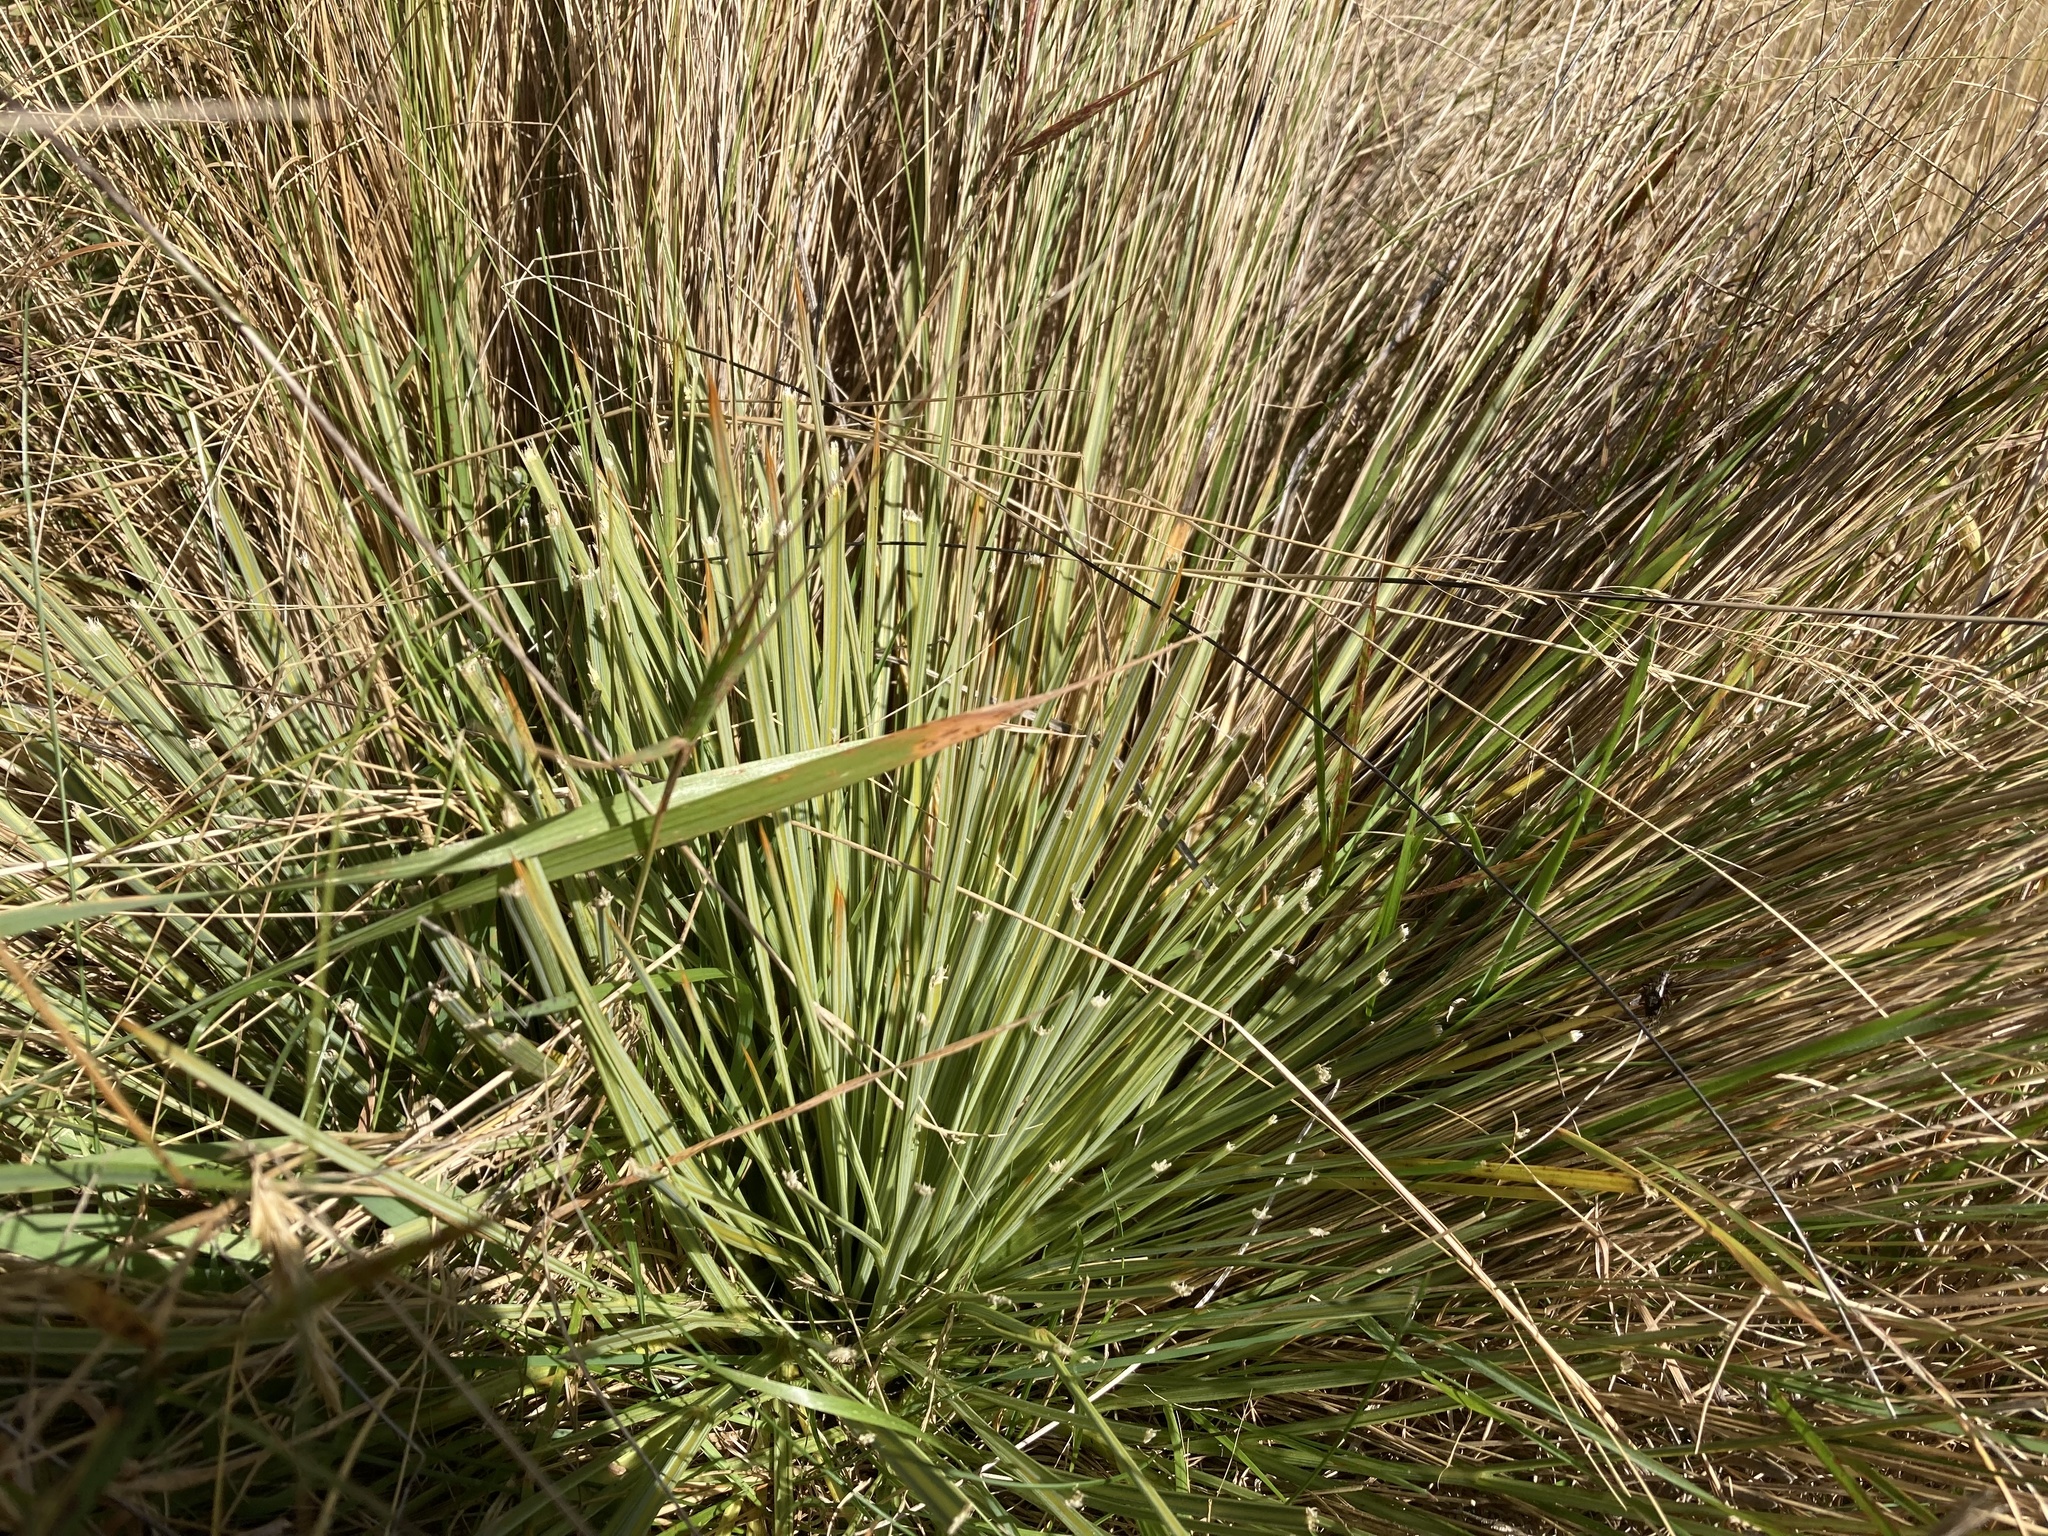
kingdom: Plantae
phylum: Tracheophyta
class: Magnoliopsida
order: Apiales
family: Apiaceae
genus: Aciphylla
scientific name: Aciphylla subflabellata
